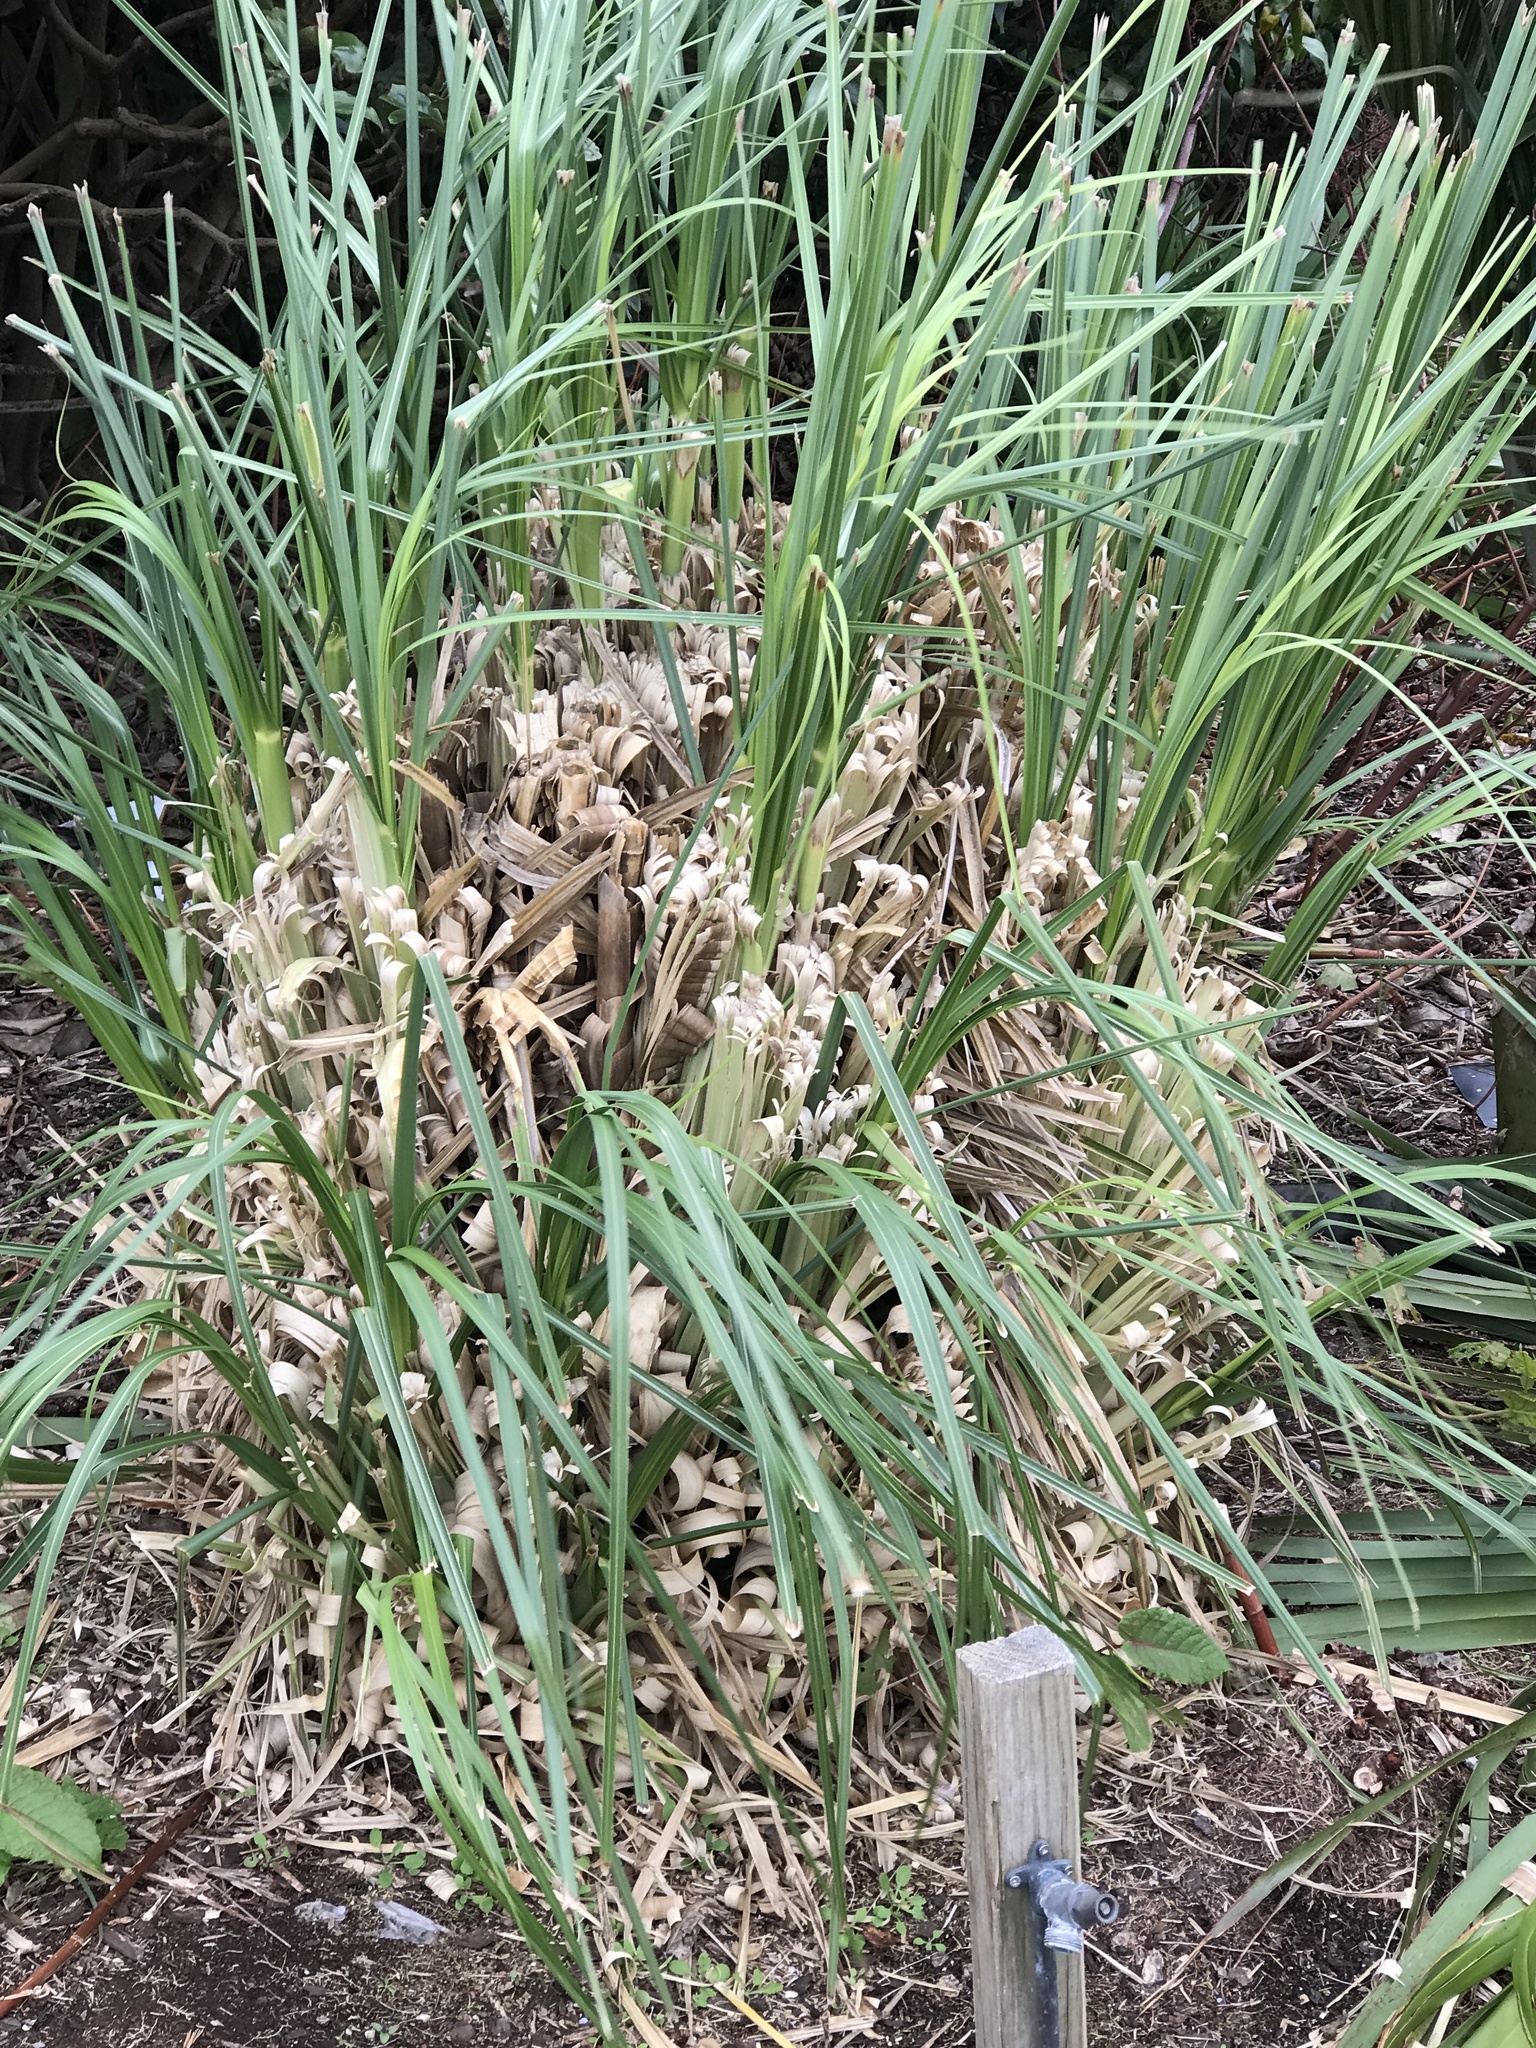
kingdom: Plantae
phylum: Tracheophyta
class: Liliopsida
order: Poales
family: Poaceae
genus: Cortaderia
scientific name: Cortaderia selloana
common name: Uruguayan pampas grass
